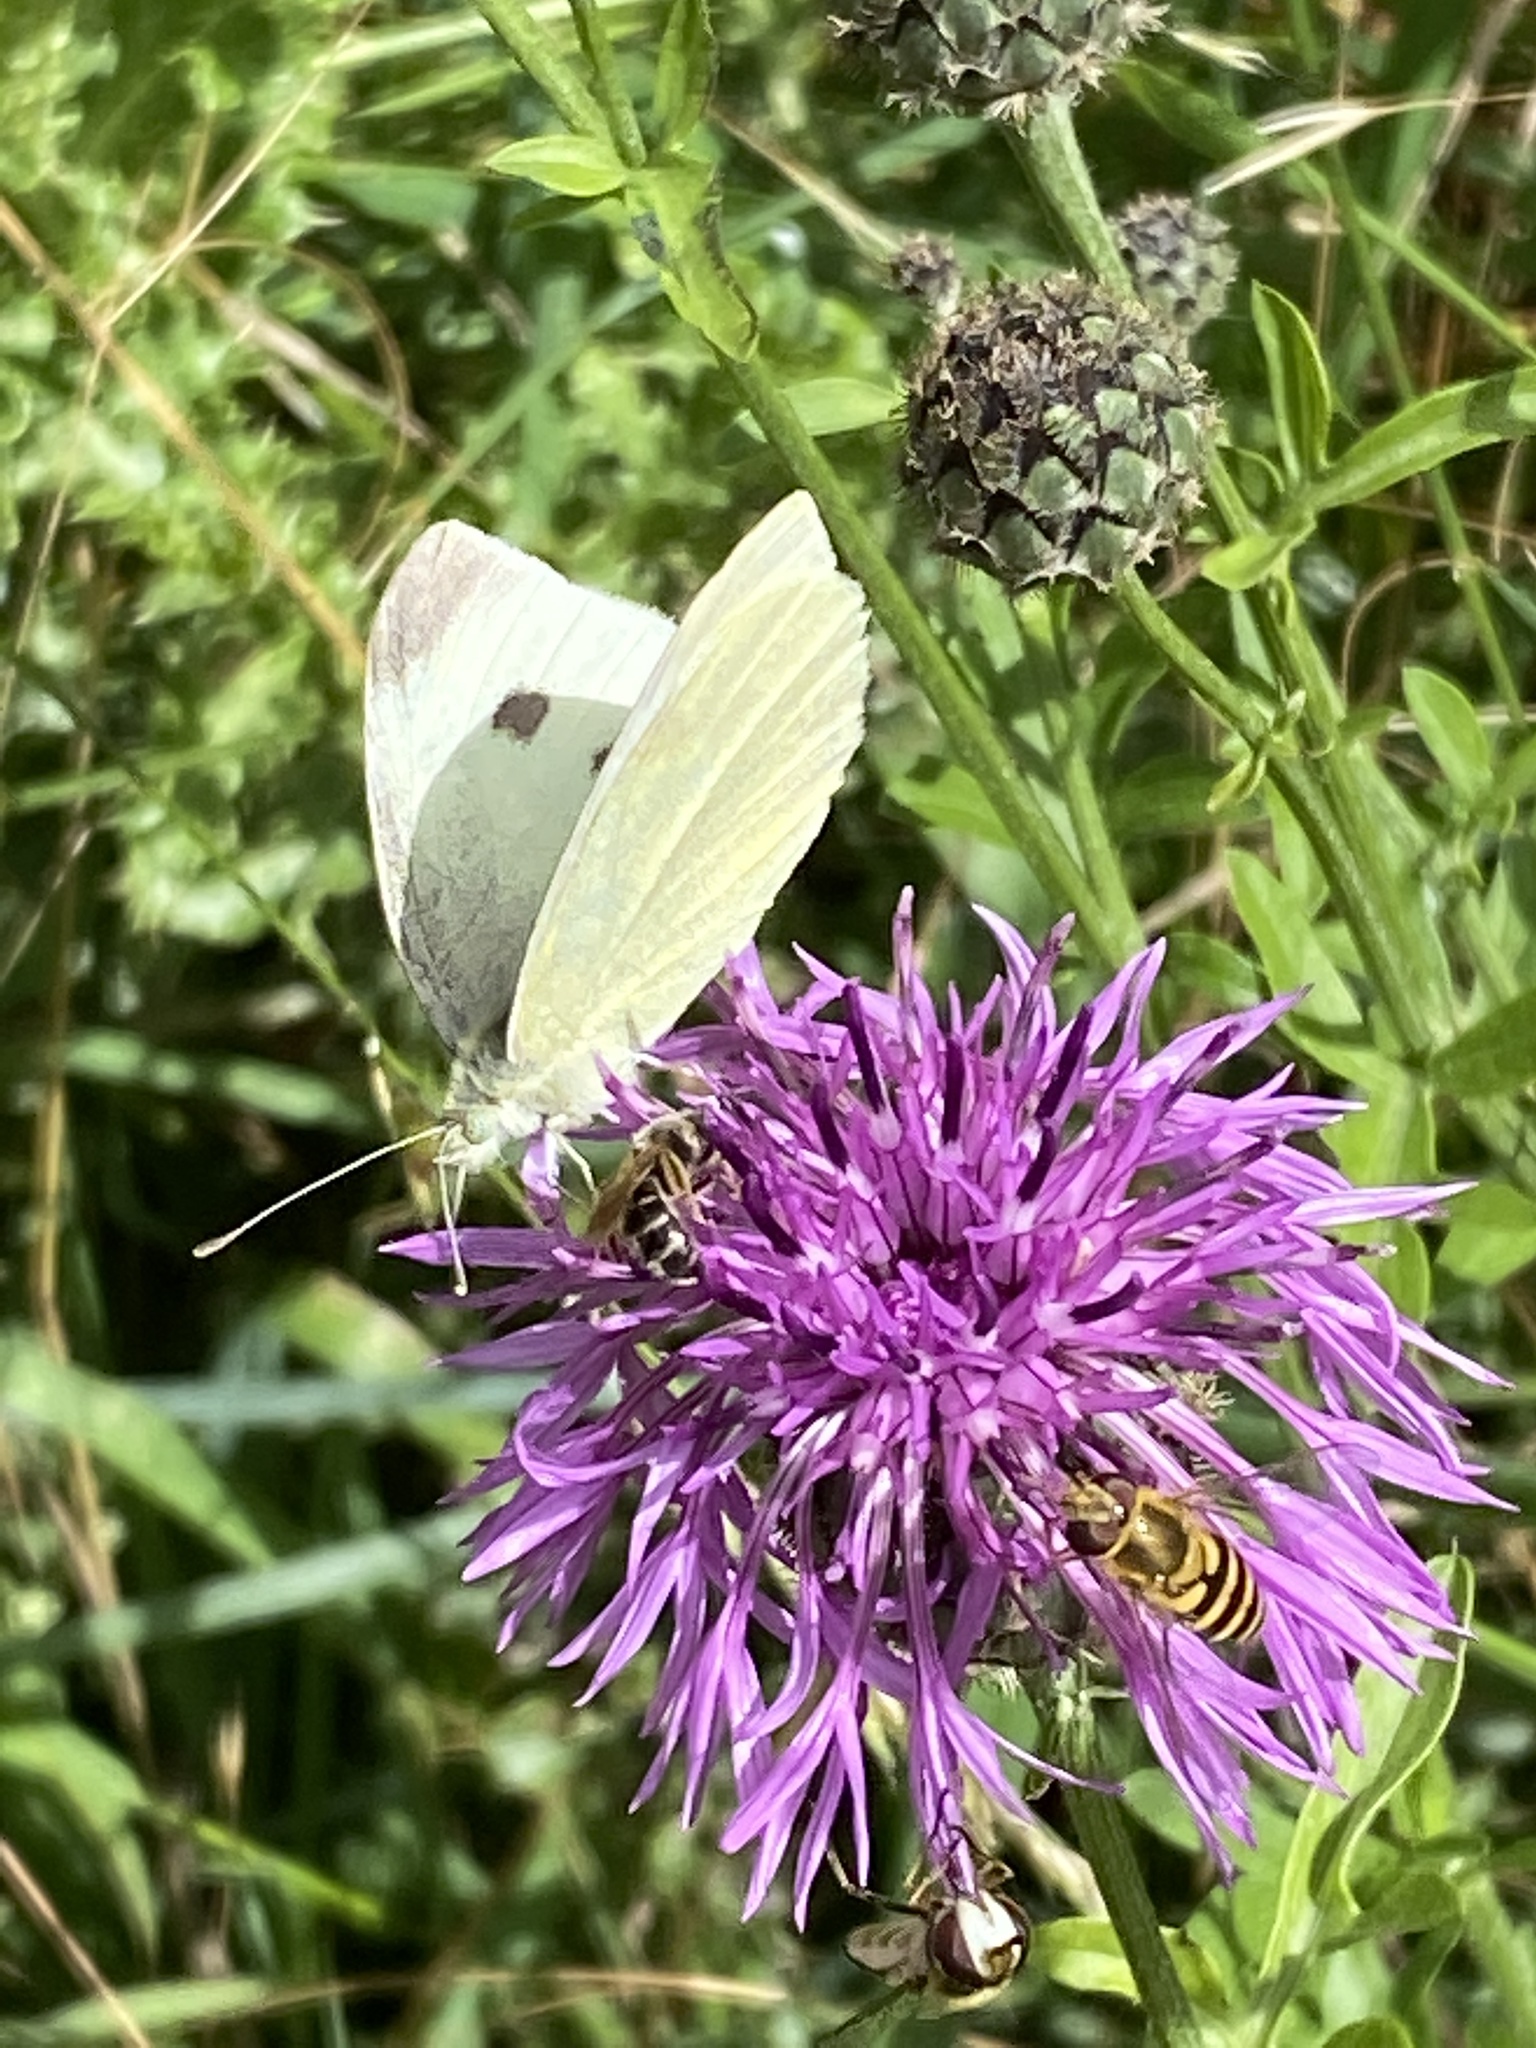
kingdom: Animalia
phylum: Arthropoda
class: Insecta
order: Lepidoptera
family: Pieridae
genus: Pieris
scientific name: Pieris rapae
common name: Small white
